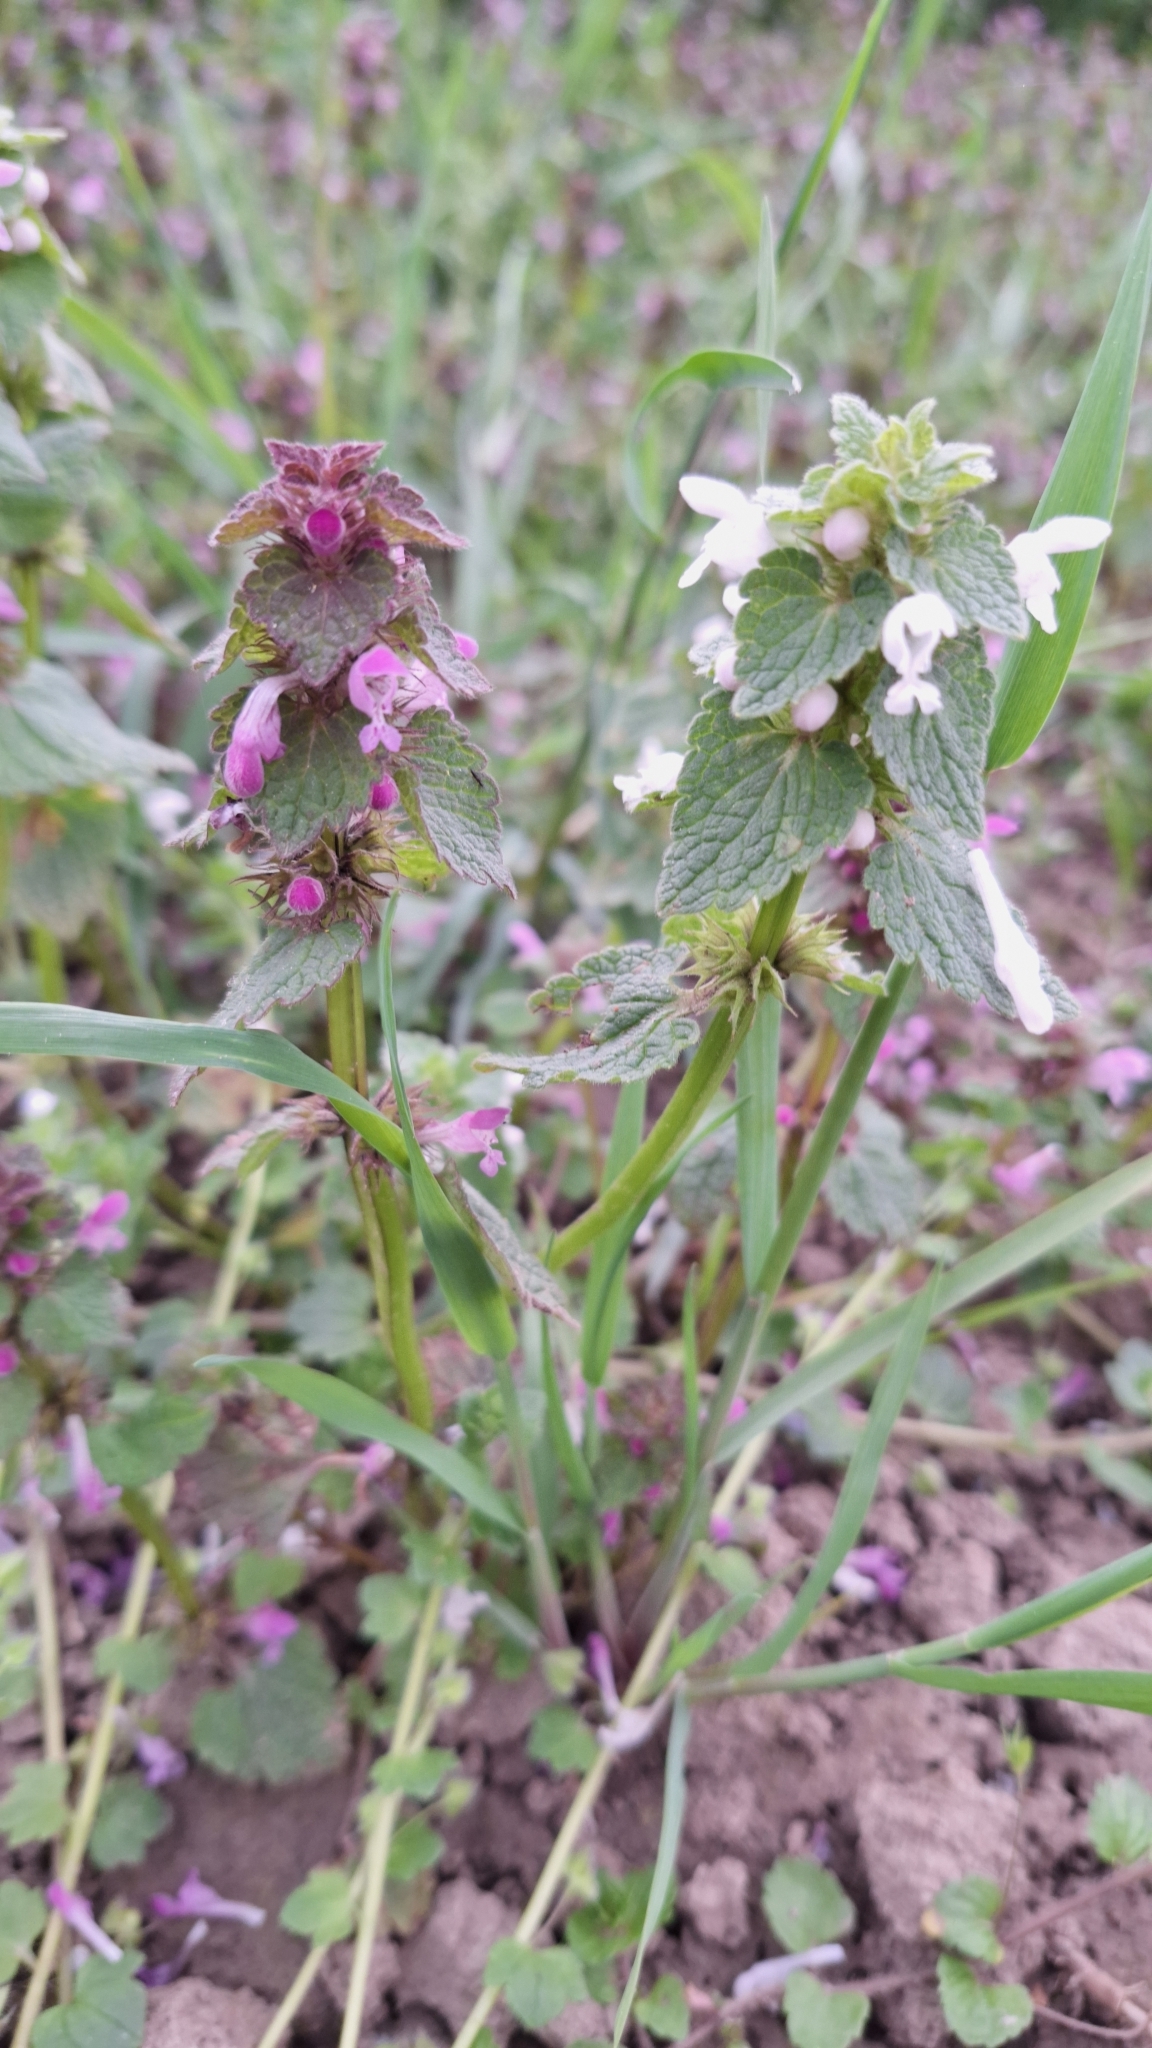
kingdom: Plantae
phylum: Tracheophyta
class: Magnoliopsida
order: Lamiales
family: Lamiaceae
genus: Lamium
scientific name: Lamium purpureum
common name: Red dead-nettle
